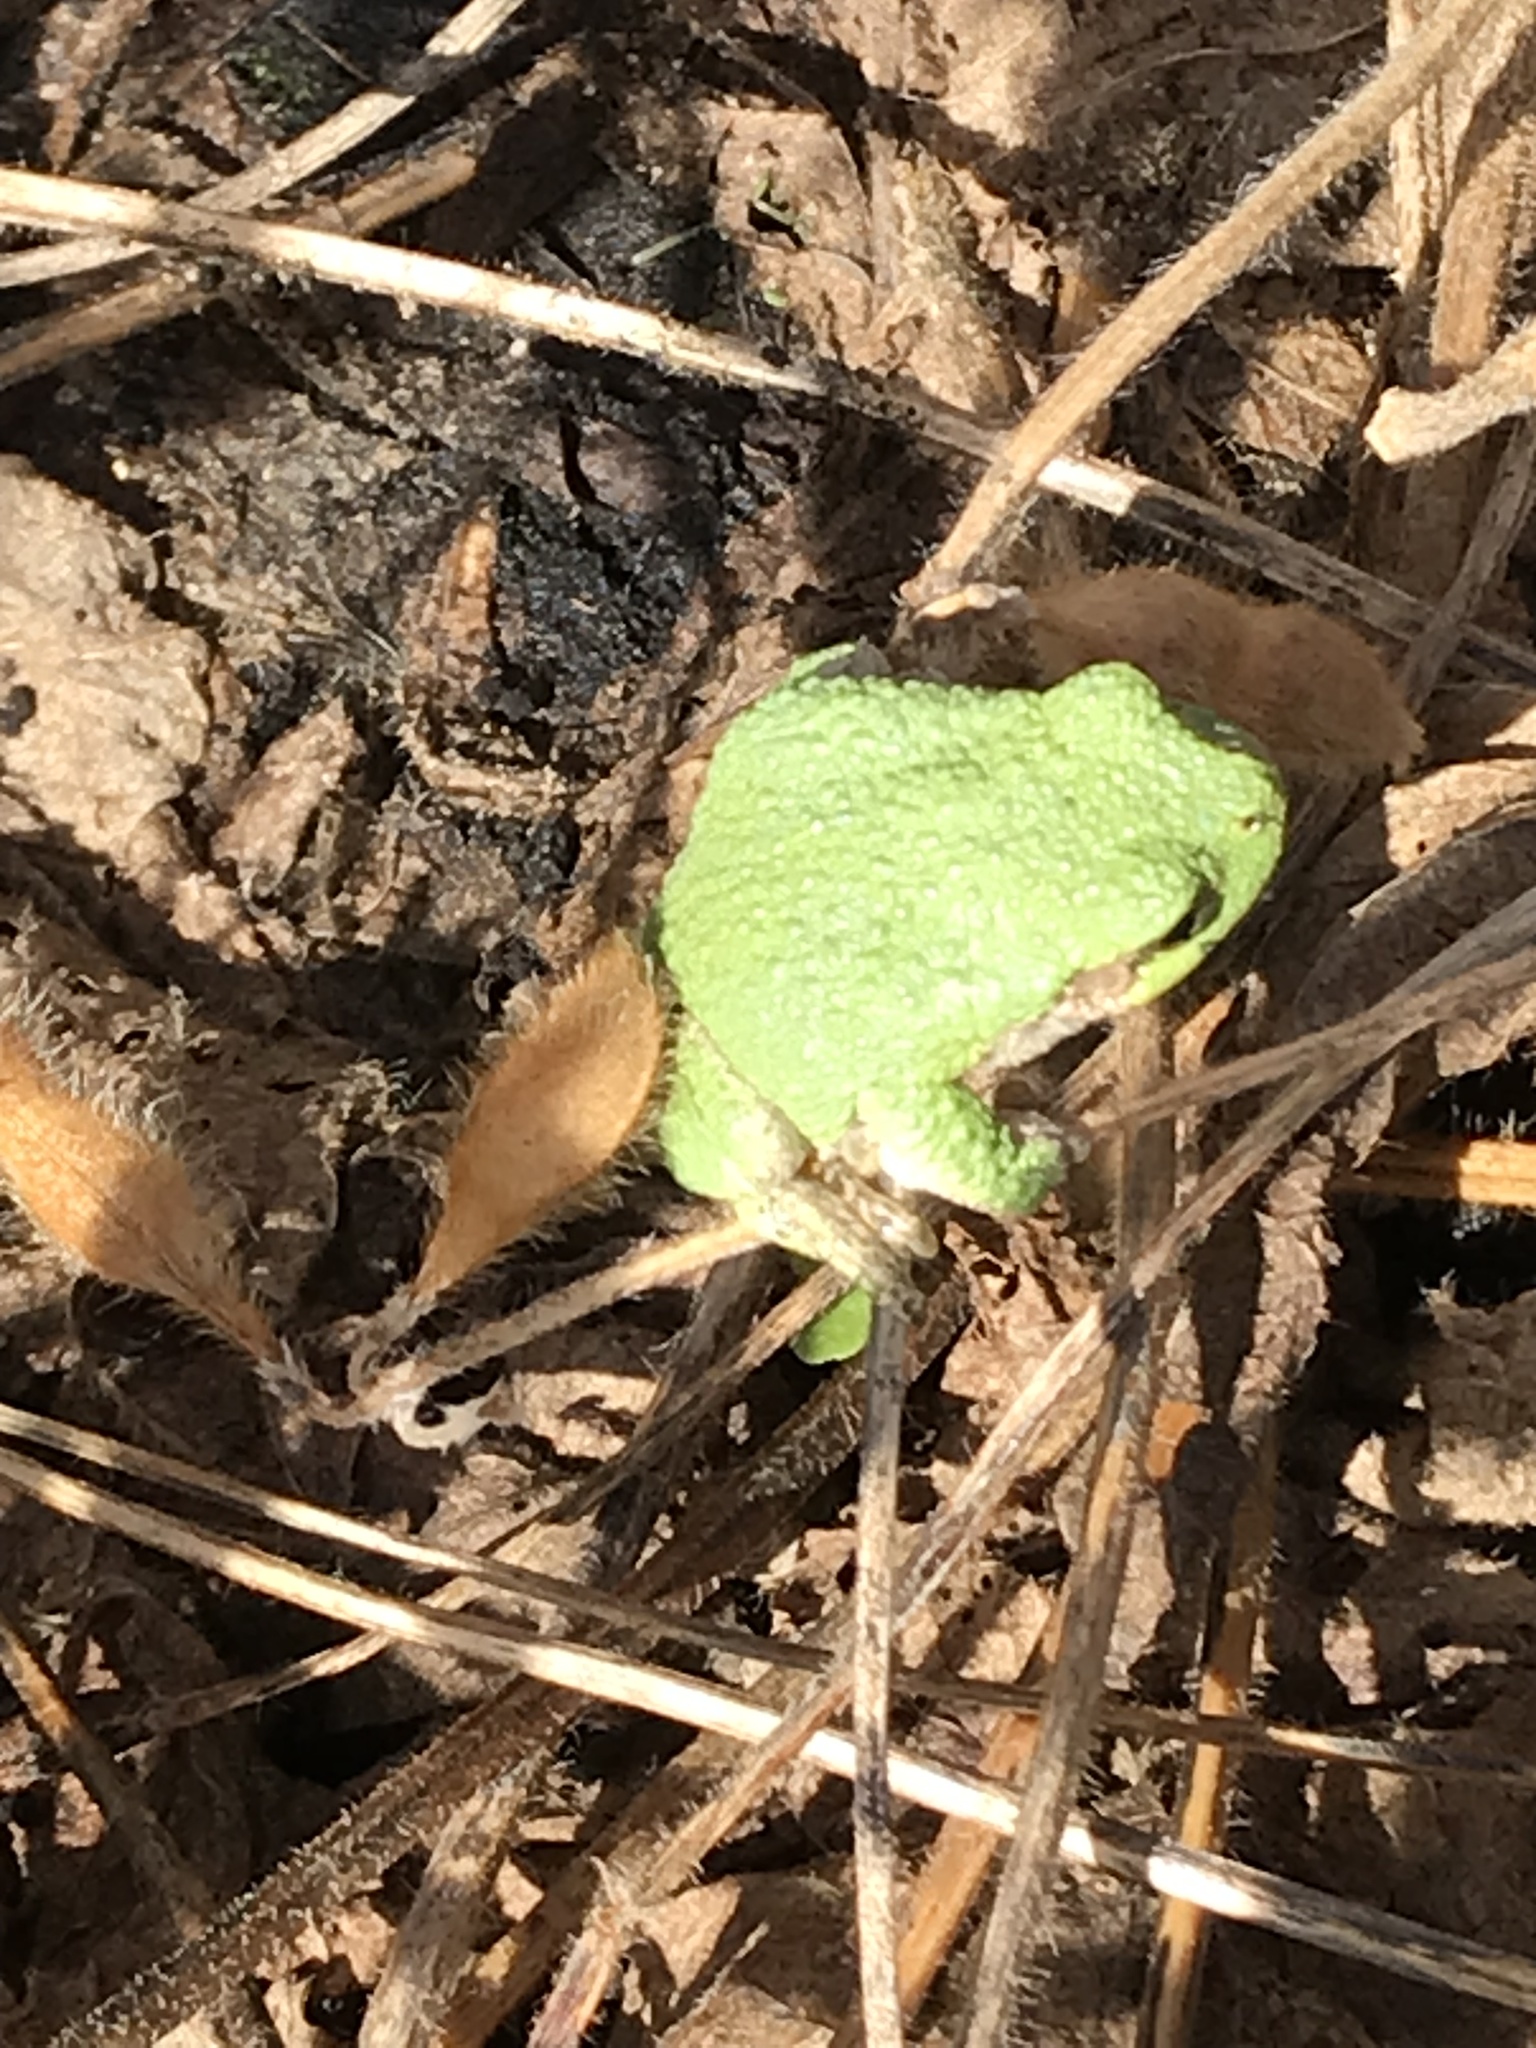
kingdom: Animalia
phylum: Chordata
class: Amphibia
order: Anura
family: Hylidae
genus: Dryophytes
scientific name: Dryophytes versicolor
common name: Gray treefrog
